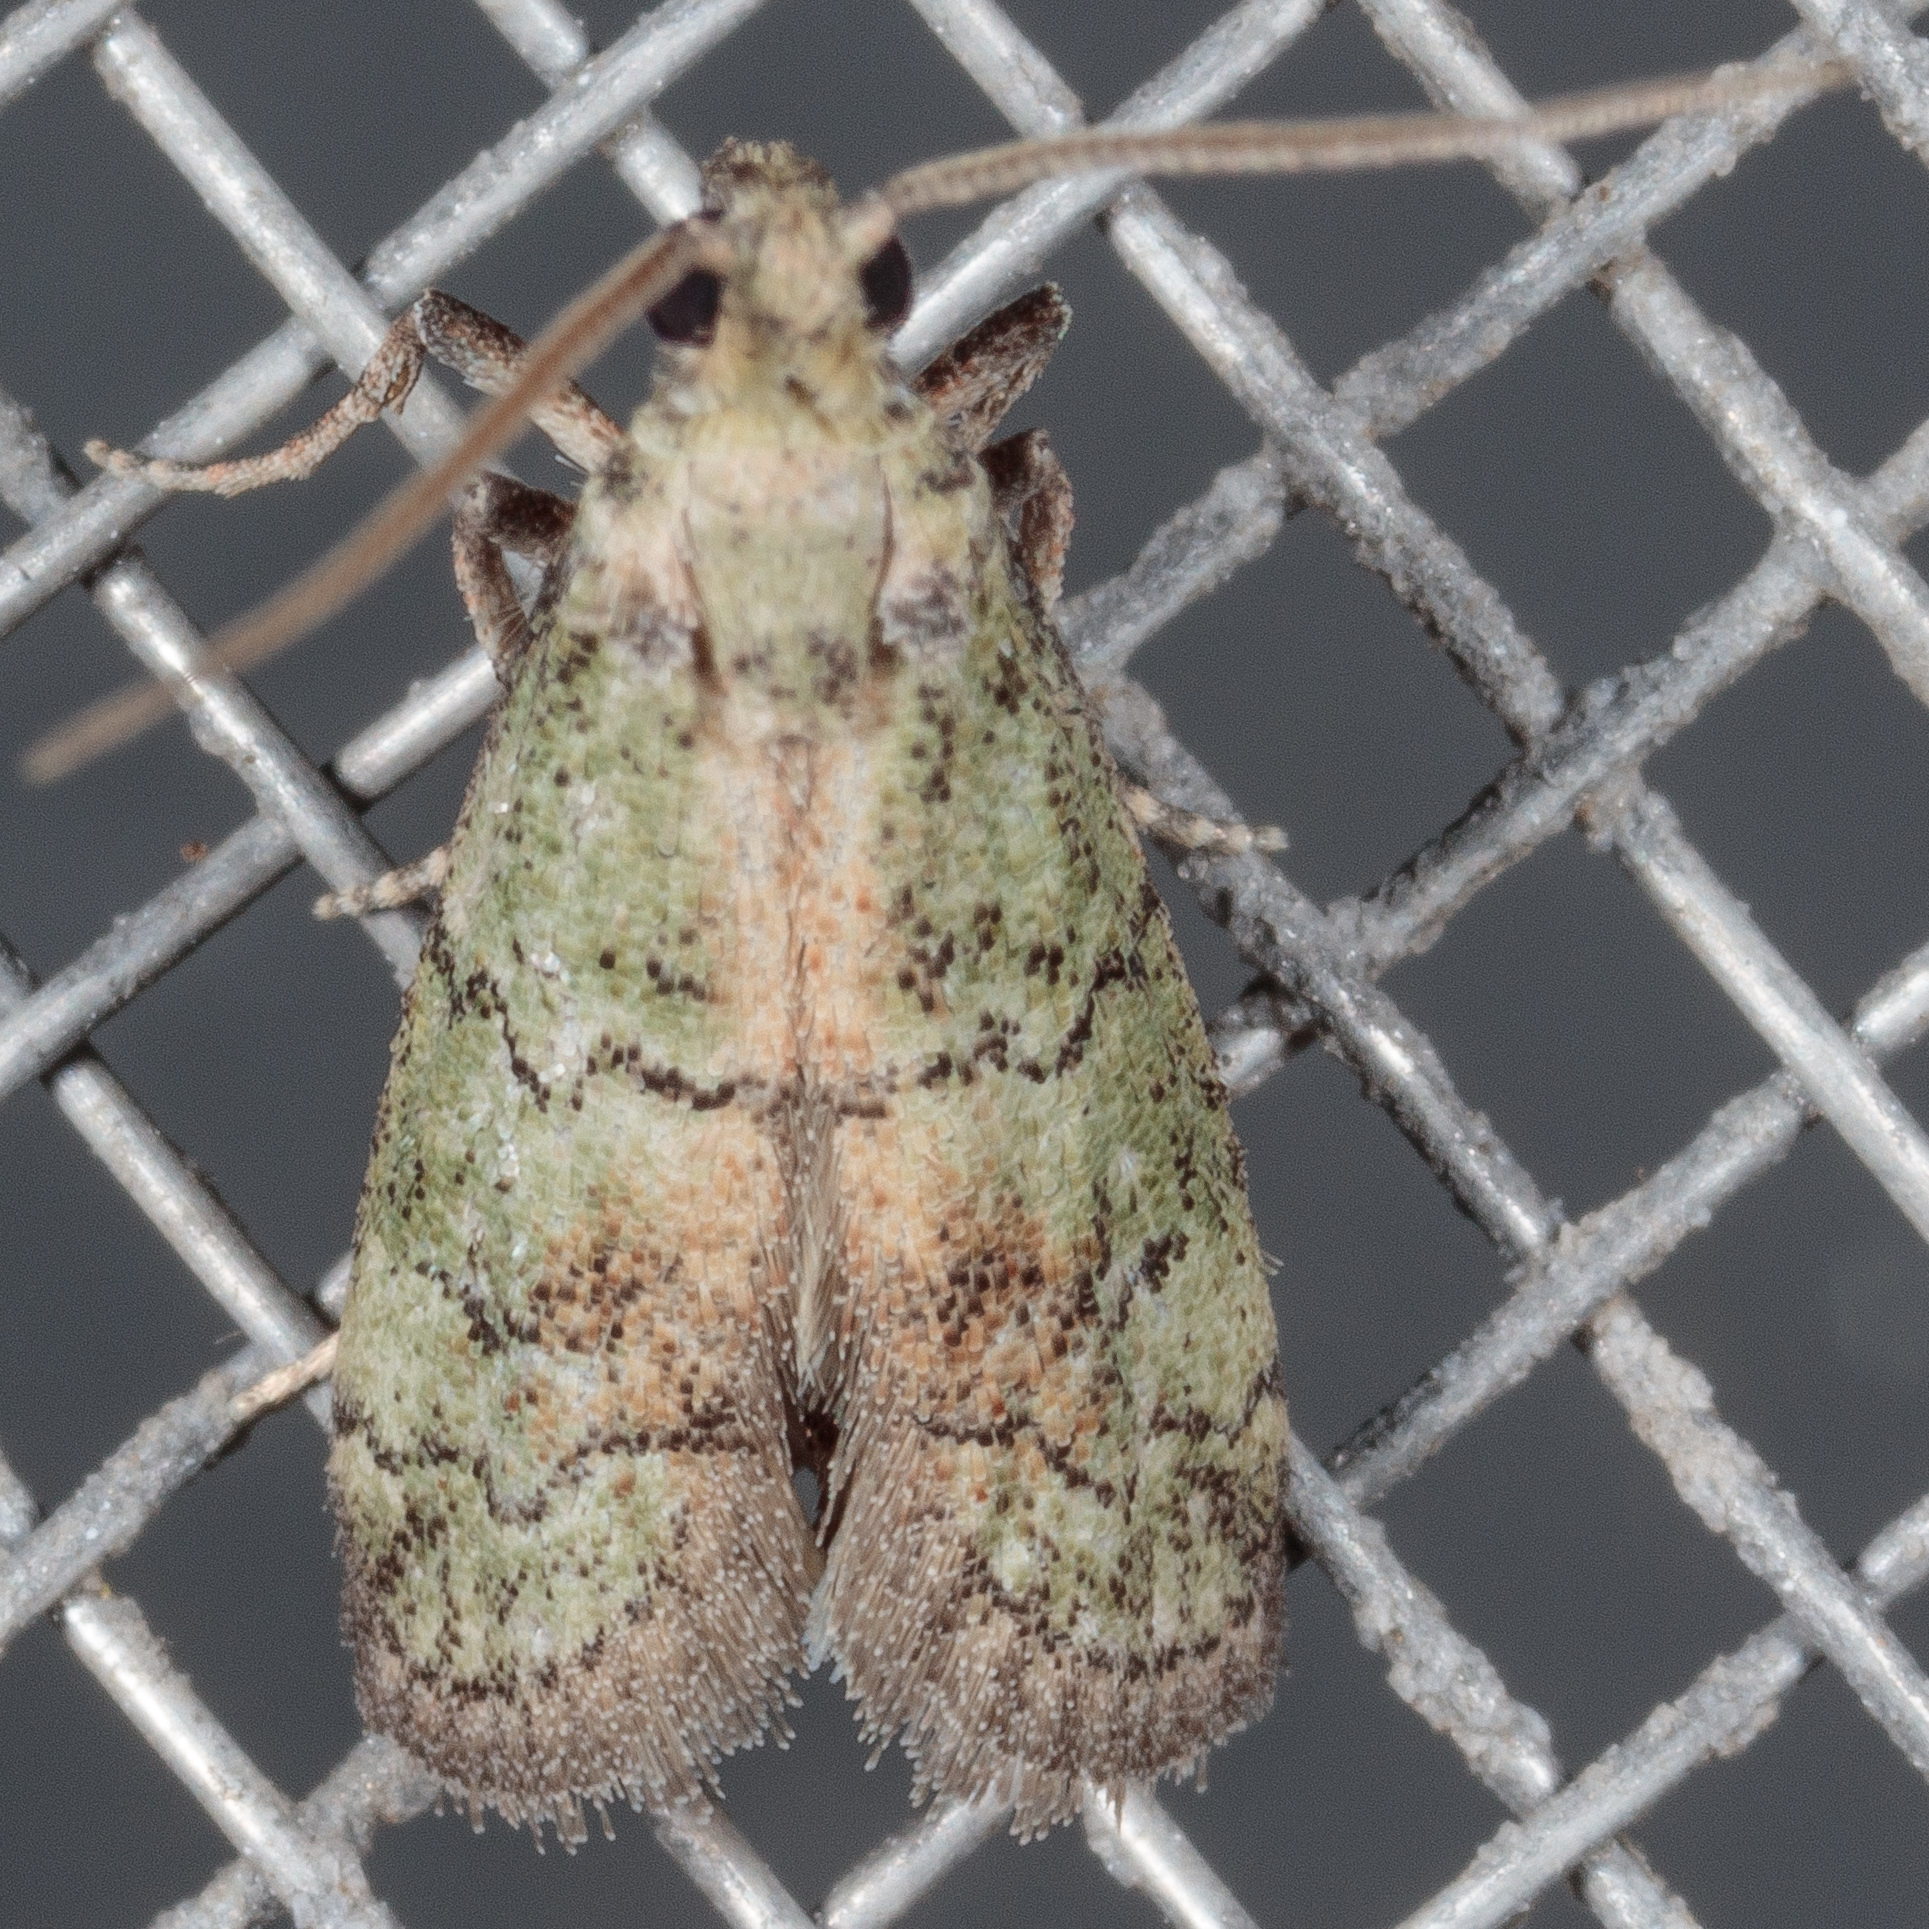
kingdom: Animalia
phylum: Arthropoda
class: Insecta
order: Lepidoptera
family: Pyralidae
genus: Cacotherapia
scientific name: Cacotherapia flexilinealis
